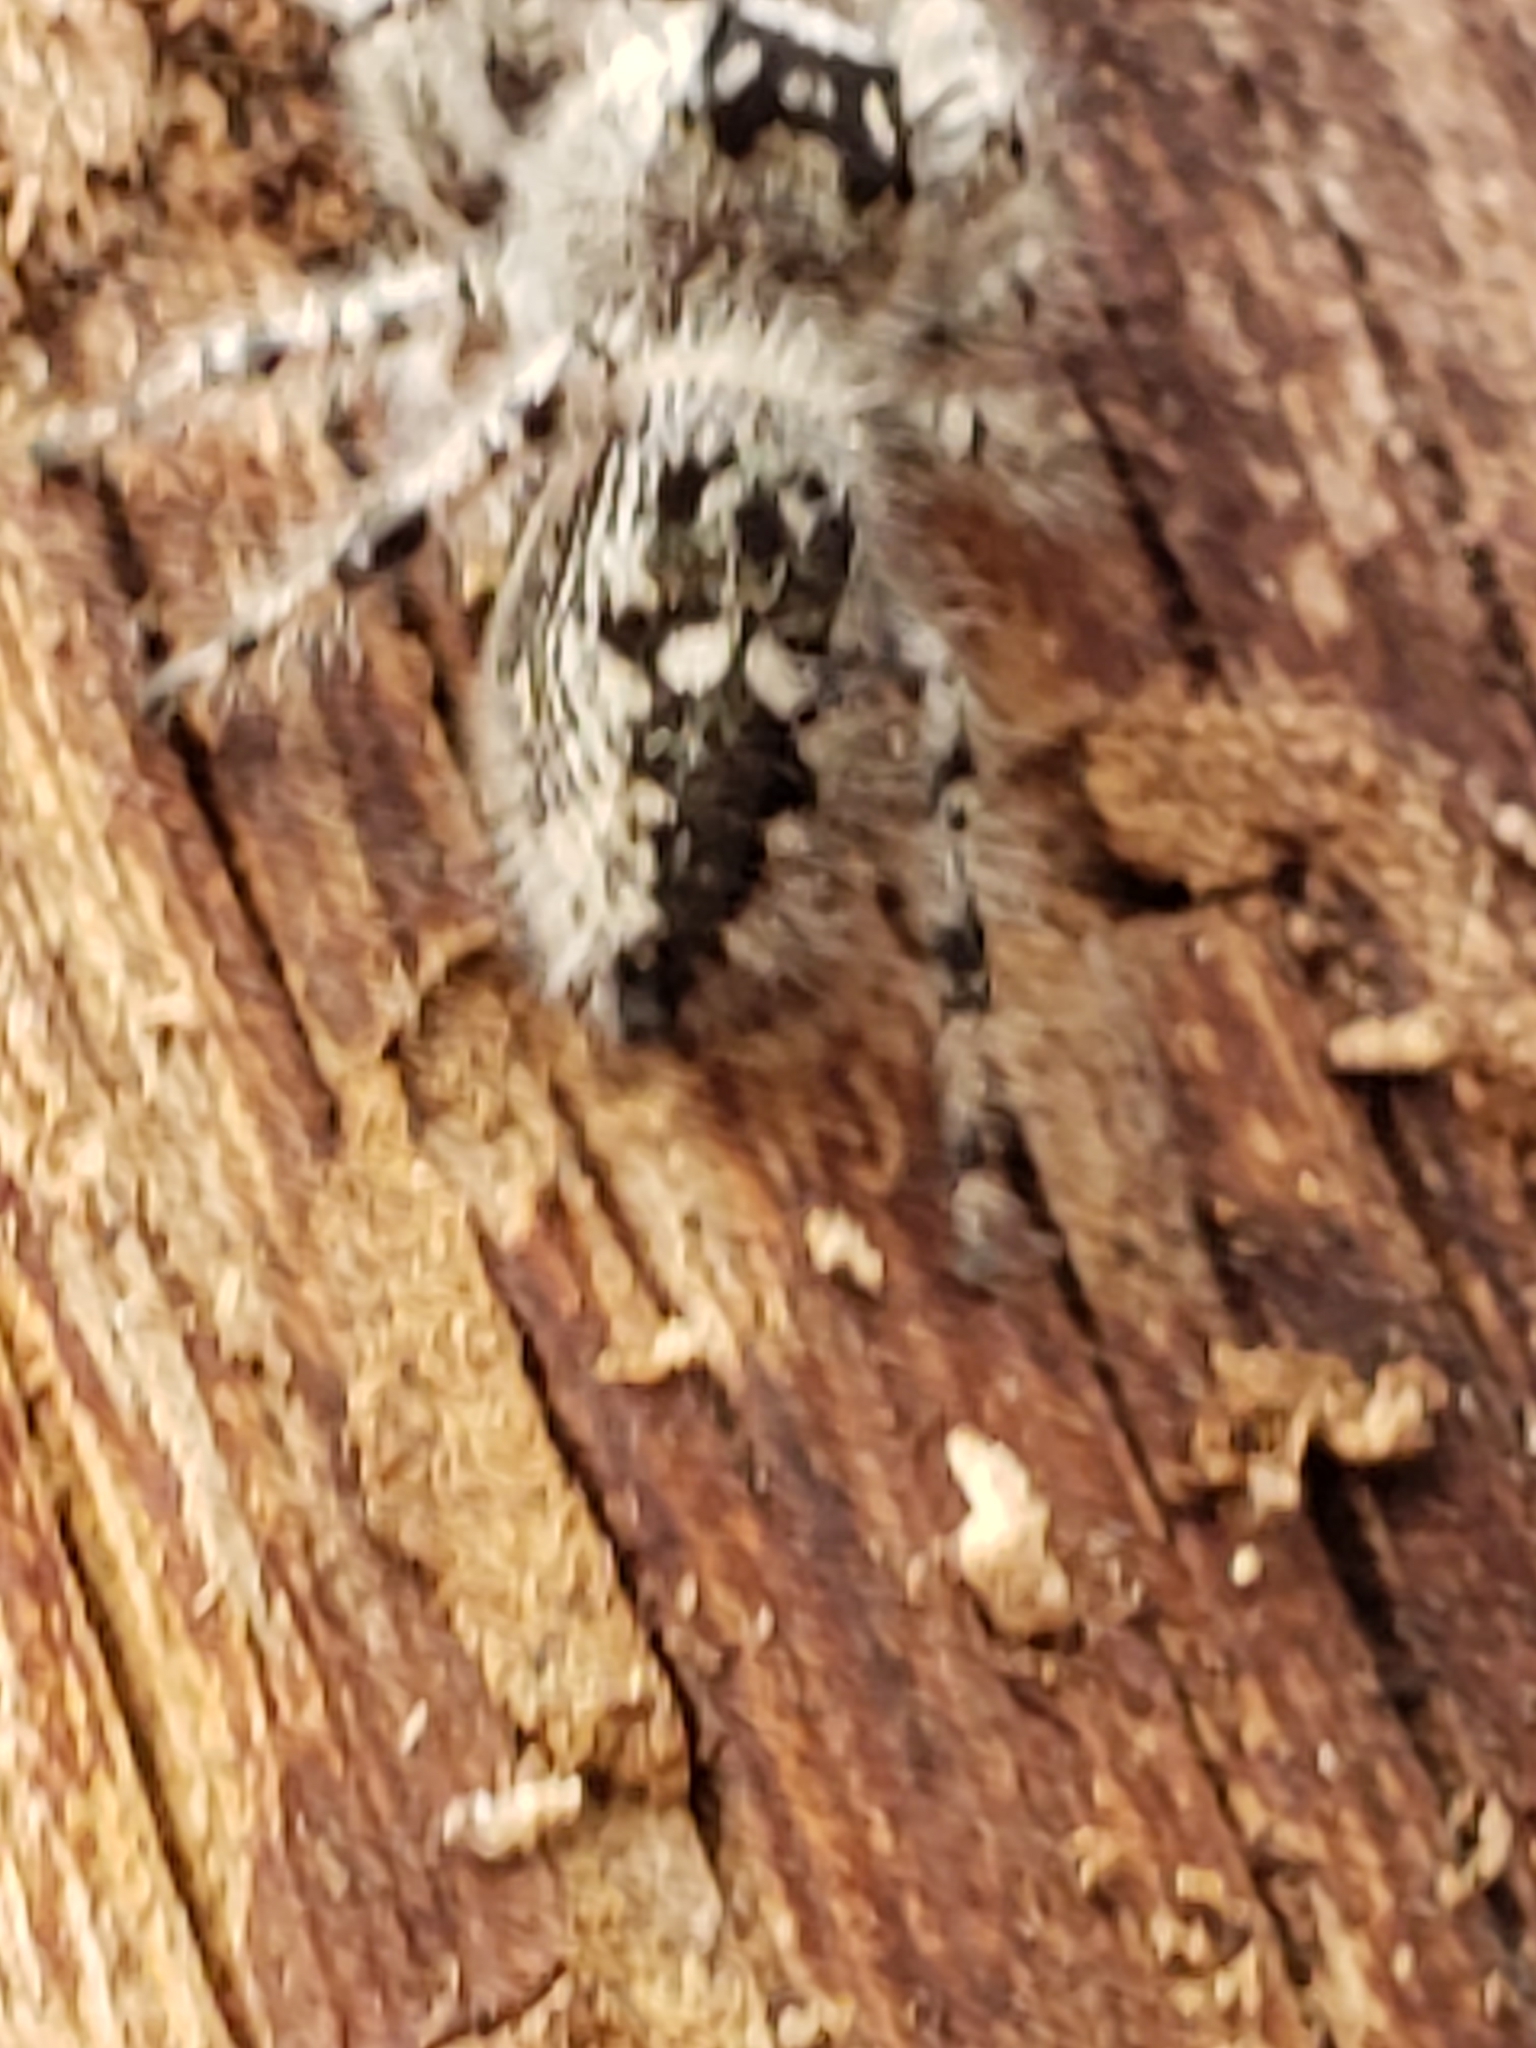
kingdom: Animalia
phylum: Arthropoda
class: Arachnida
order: Araneae
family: Salticidae
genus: Phidippus
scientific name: Phidippus otiosus
